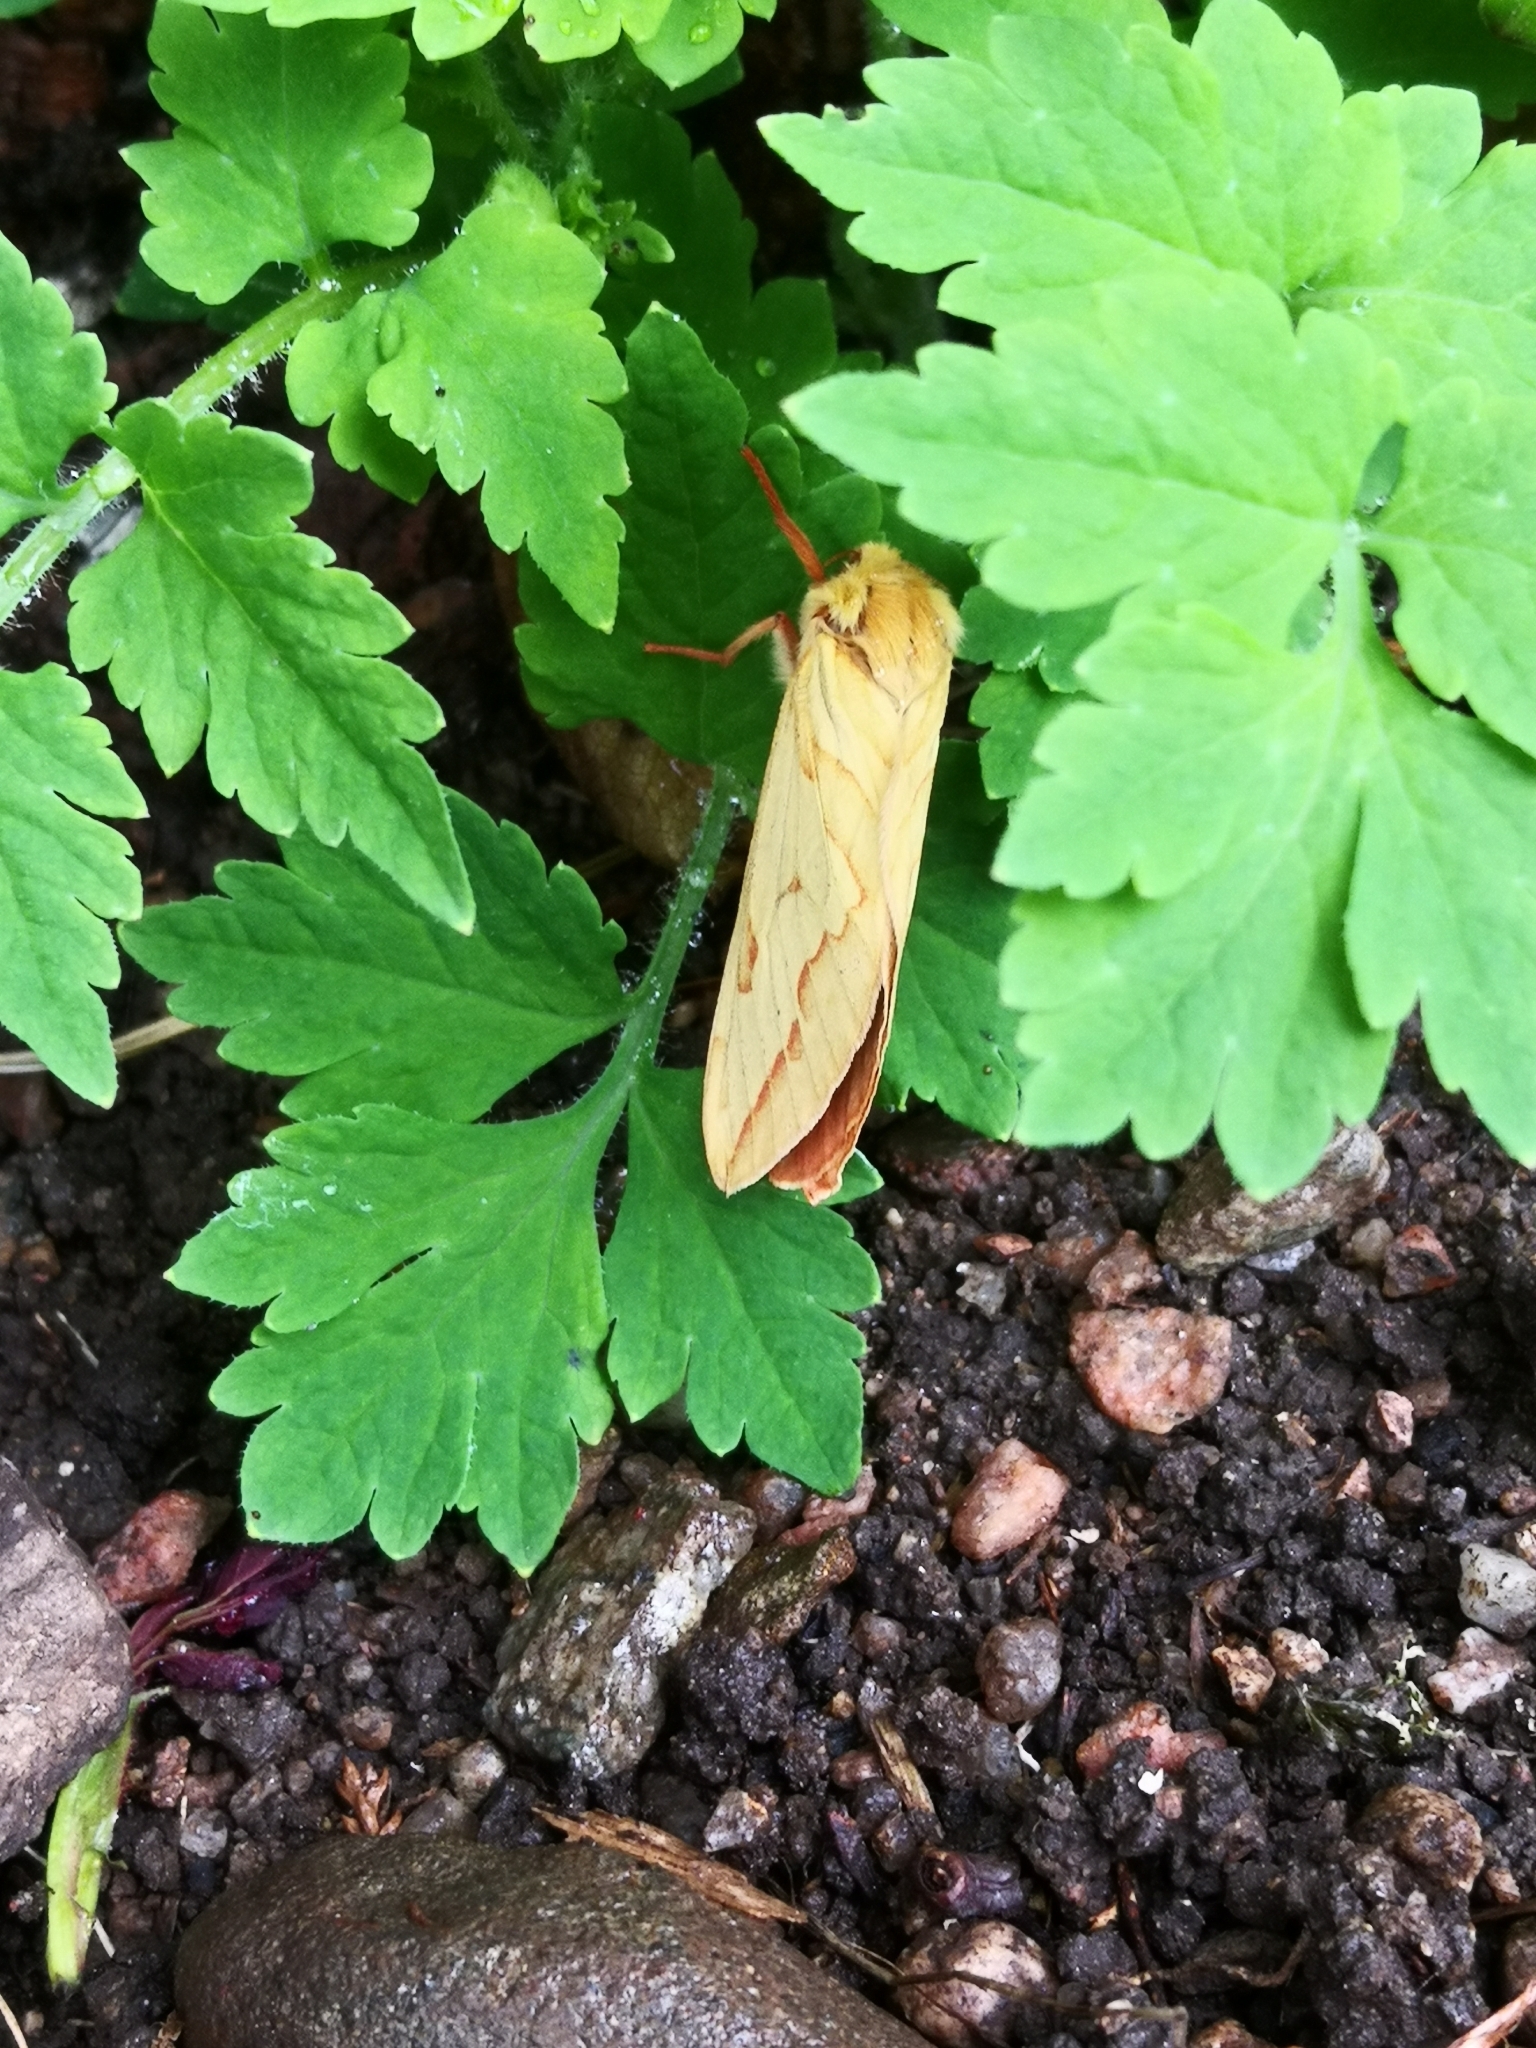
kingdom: Animalia
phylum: Arthropoda
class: Insecta
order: Lepidoptera
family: Hepialidae
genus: Hepialus
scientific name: Hepialus humuli
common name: Ghost moth
